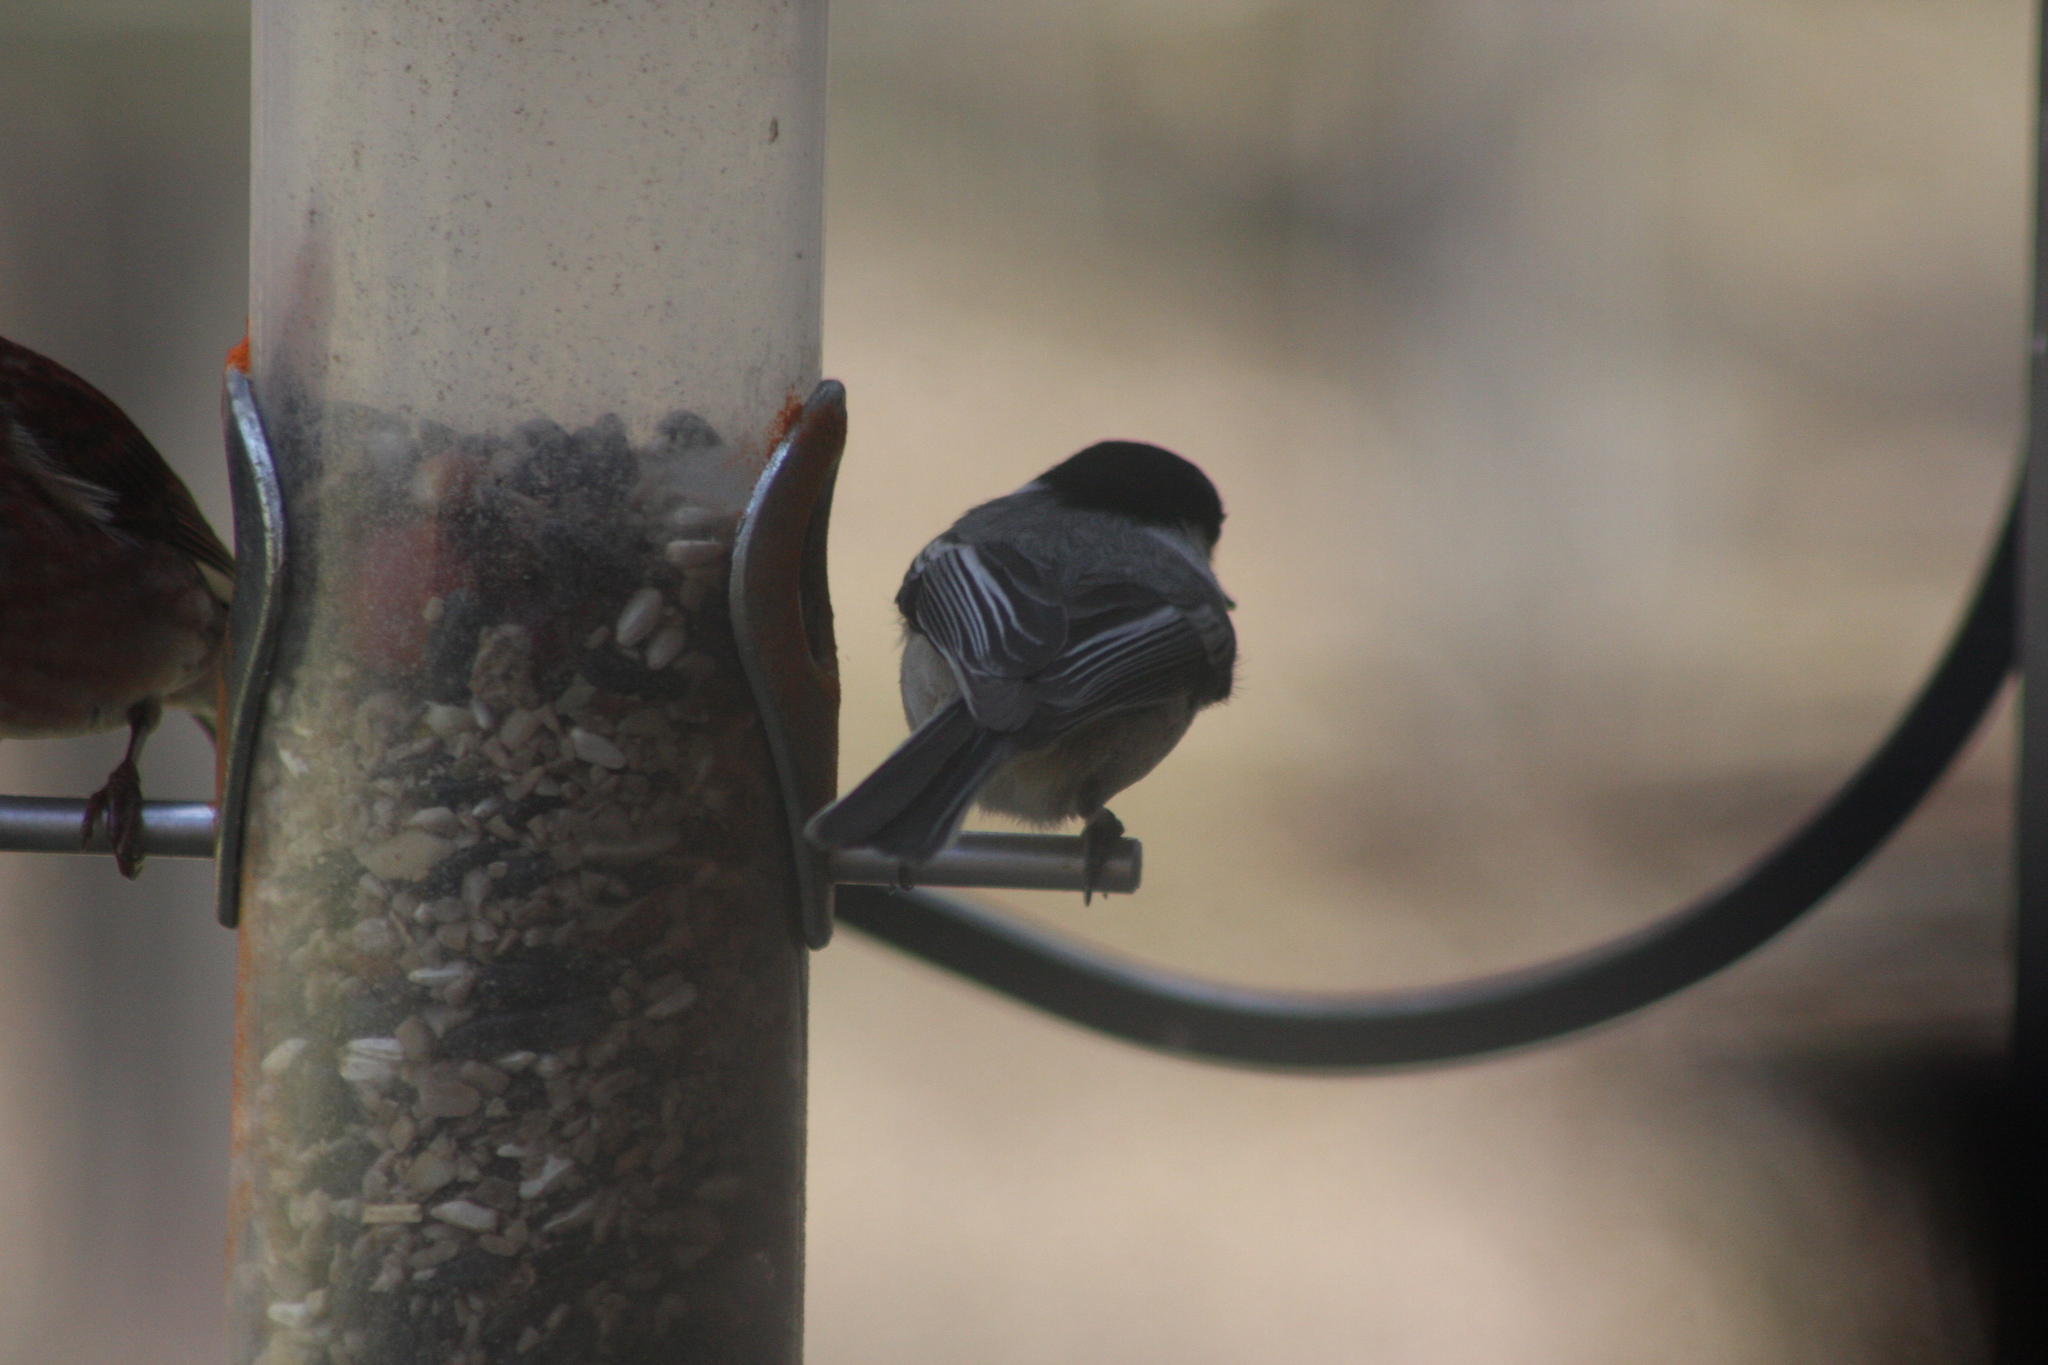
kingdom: Animalia
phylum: Chordata
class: Aves
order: Passeriformes
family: Paridae
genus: Poecile
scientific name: Poecile atricapillus
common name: Black-capped chickadee
